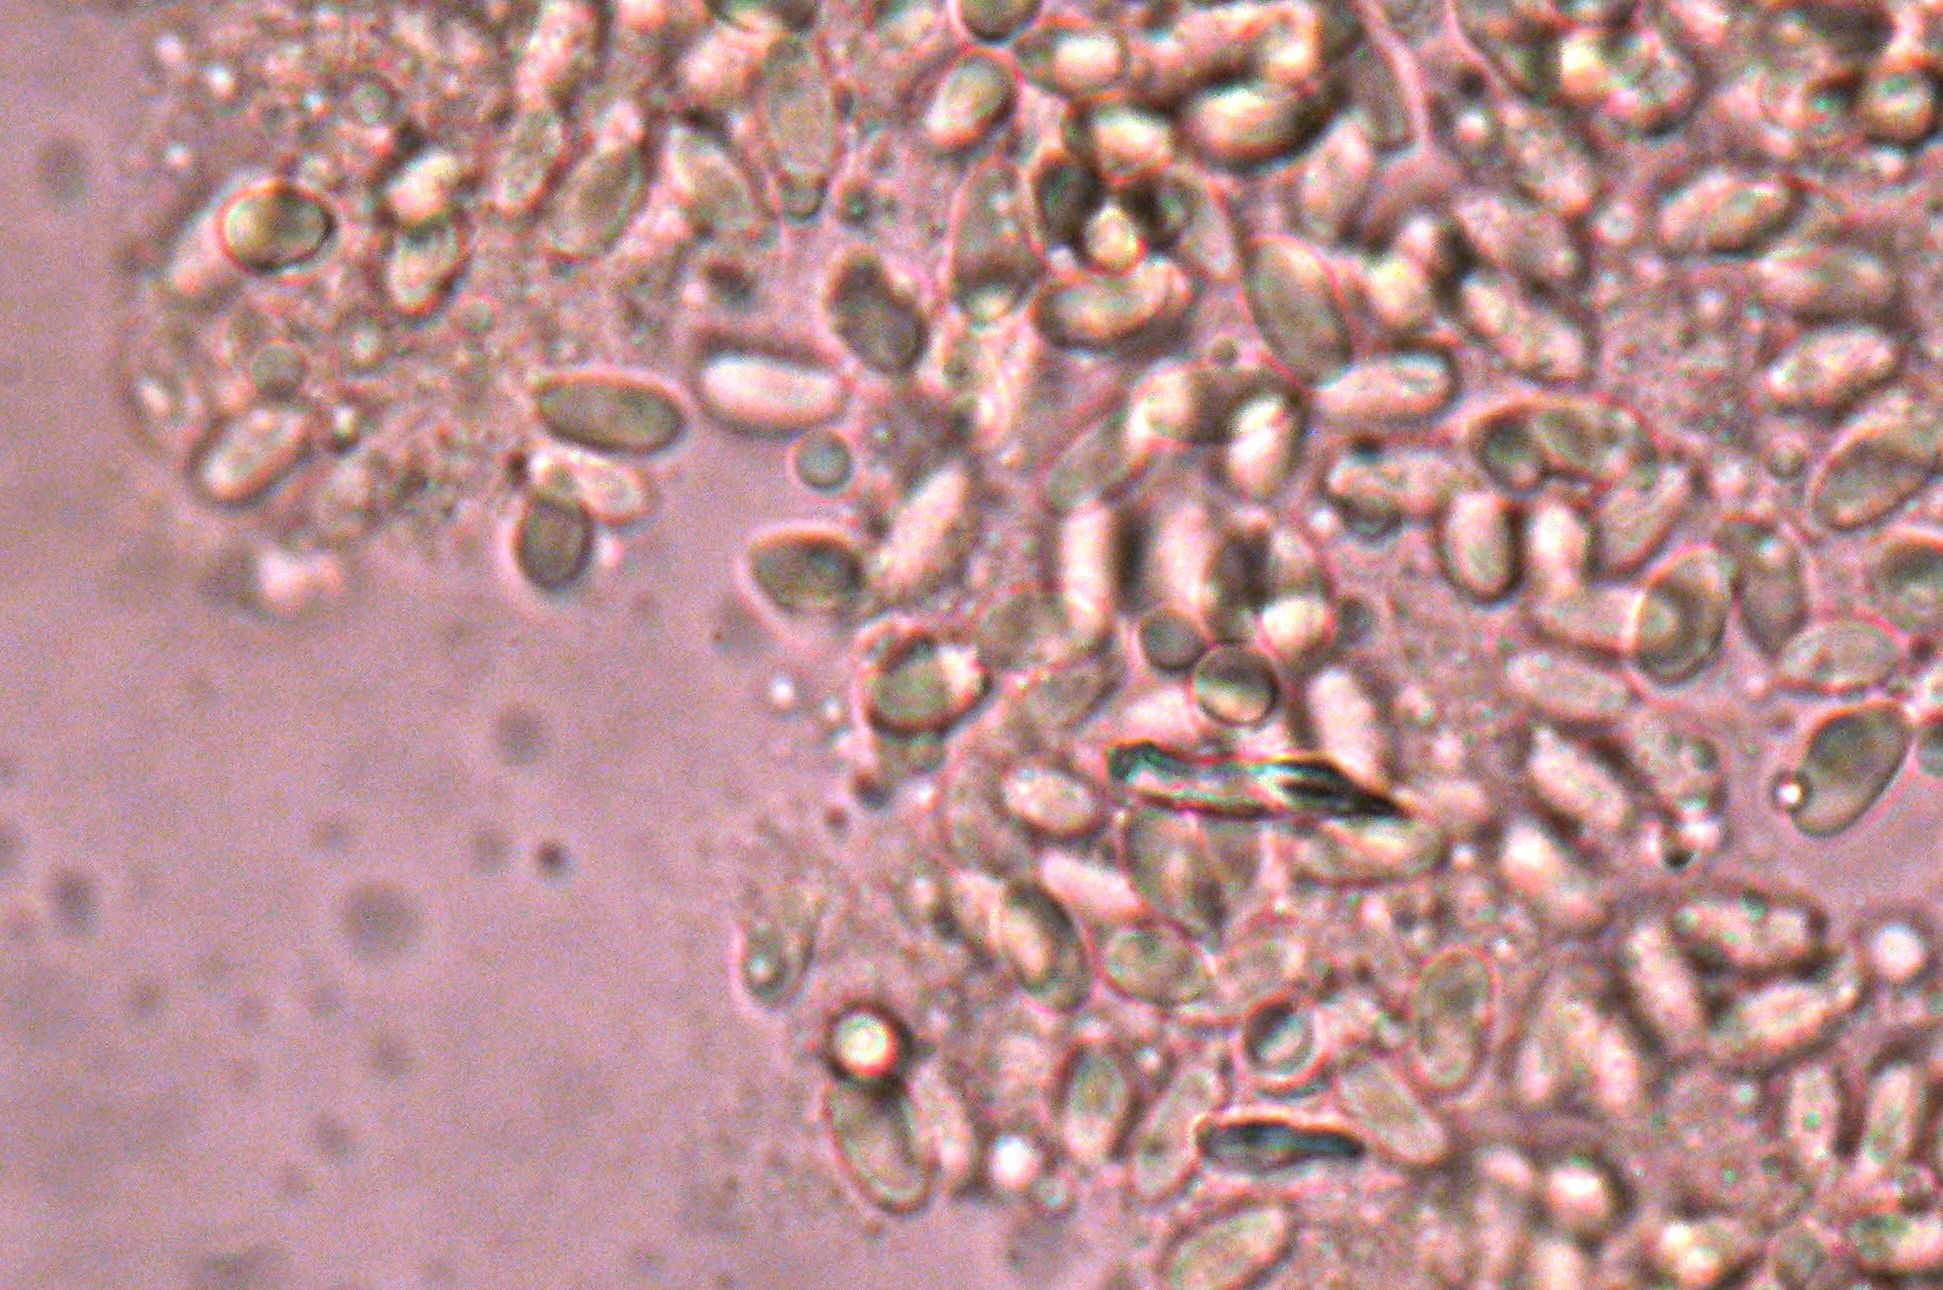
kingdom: Fungi
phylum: Basidiomycota
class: Agaricomycetes
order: Agaricales
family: Physalacriaceae
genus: Flammulina
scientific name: Flammulina velutipes
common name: Velvet shank
